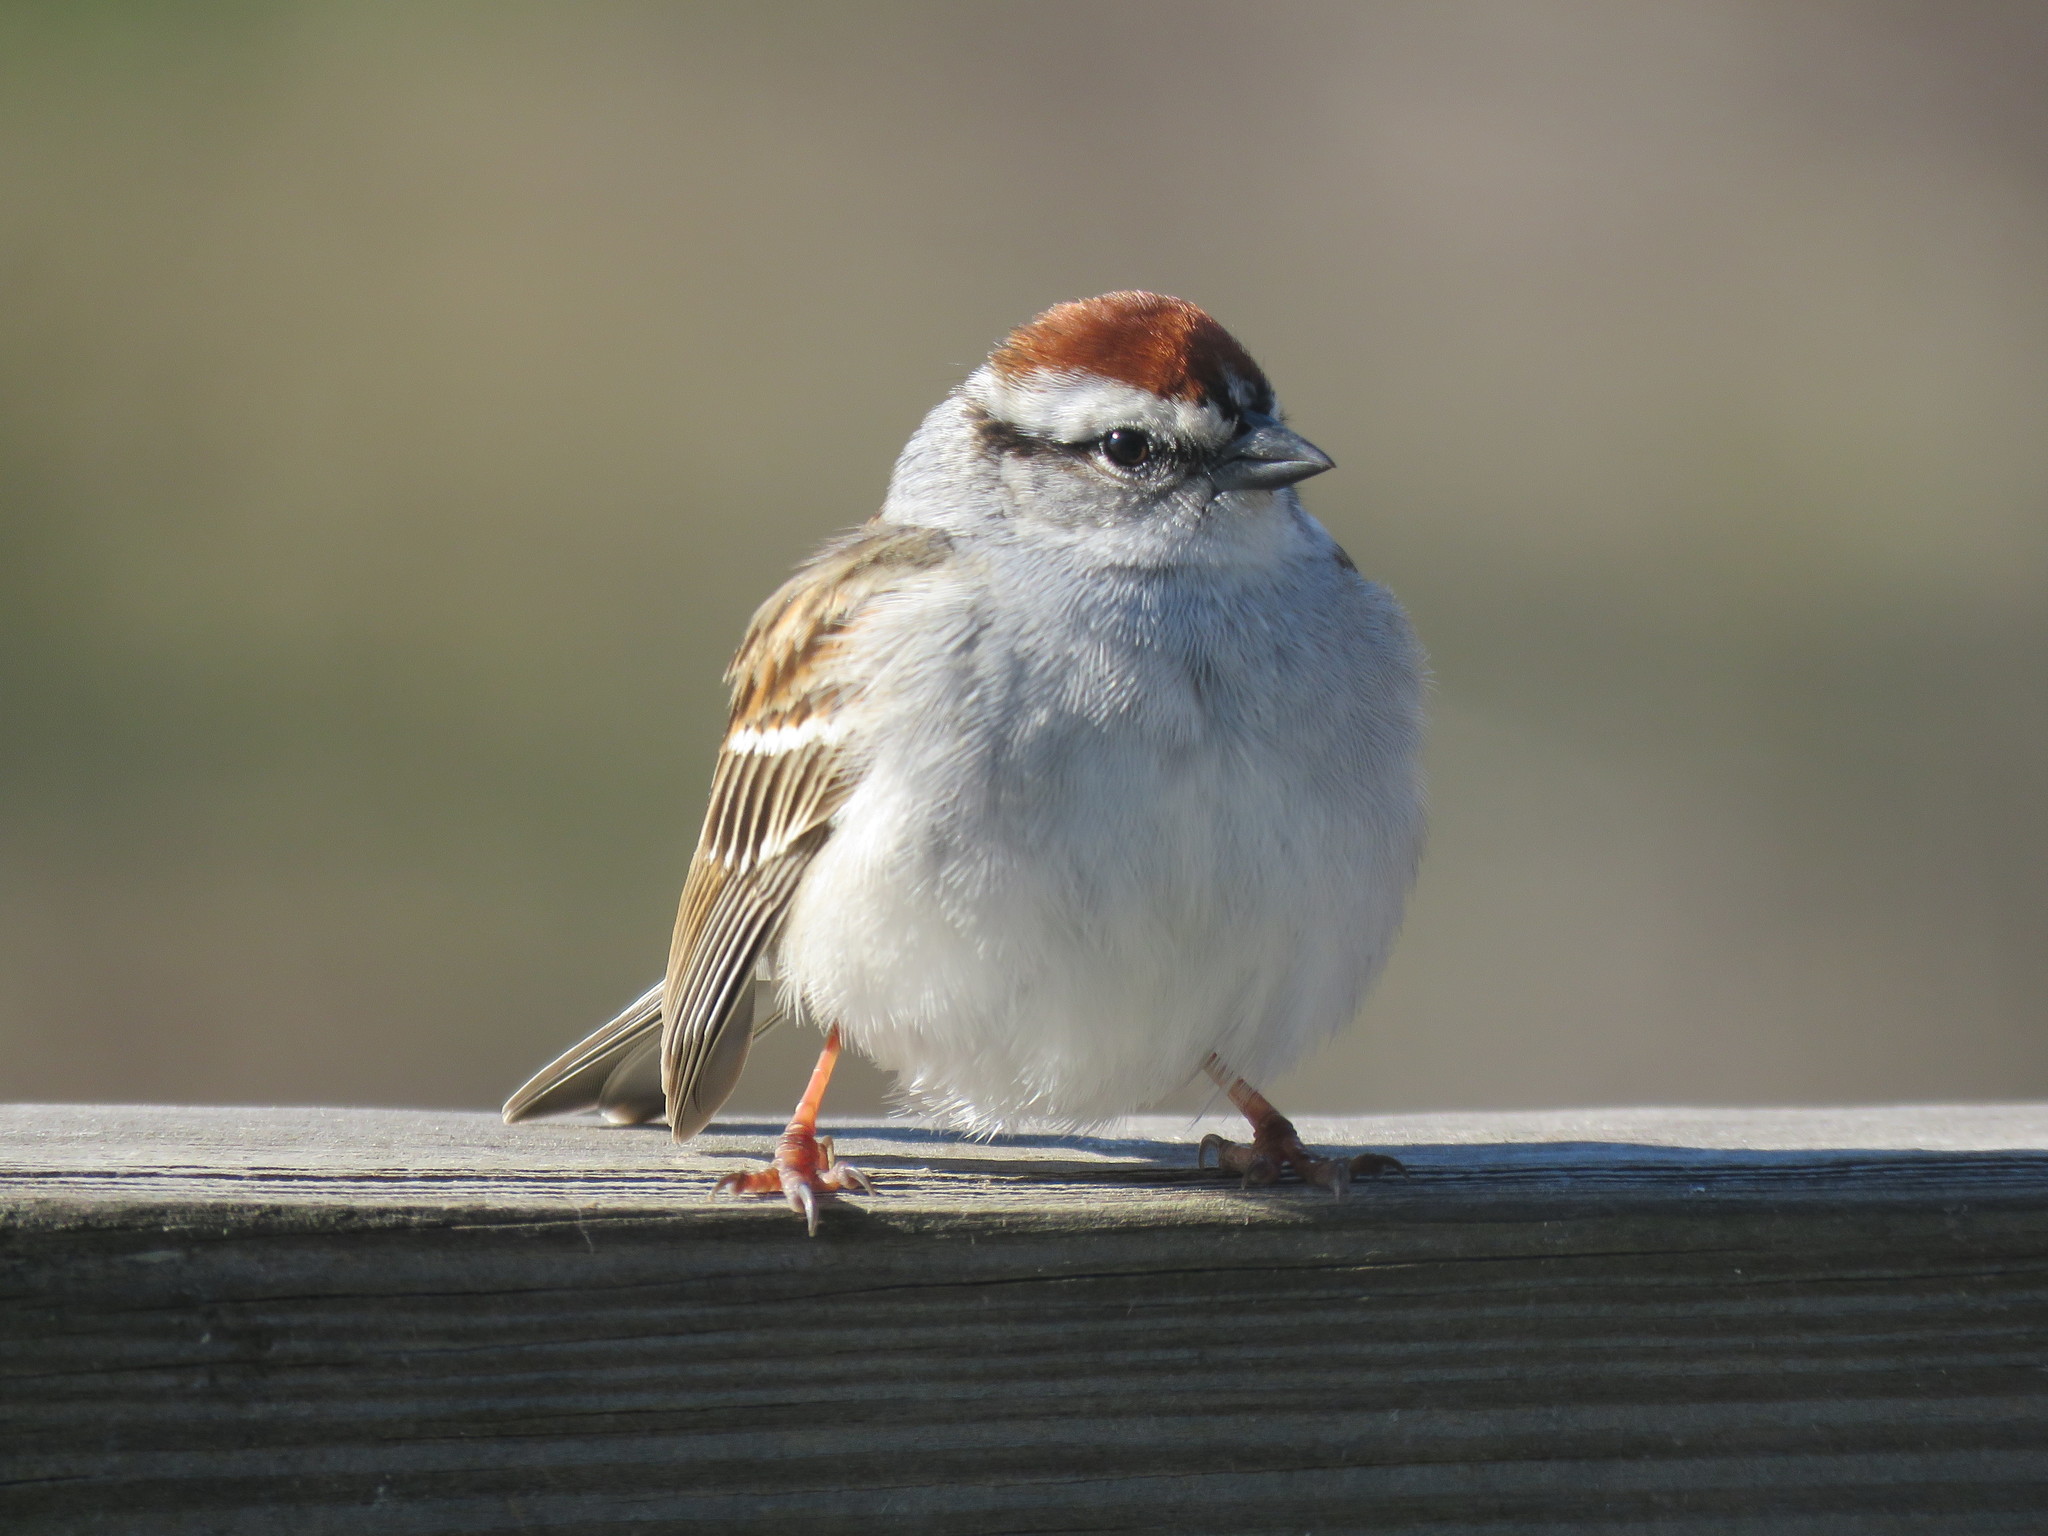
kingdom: Animalia
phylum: Chordata
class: Aves
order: Passeriformes
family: Passerellidae
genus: Spizella
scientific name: Spizella passerina
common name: Chipping sparrow
